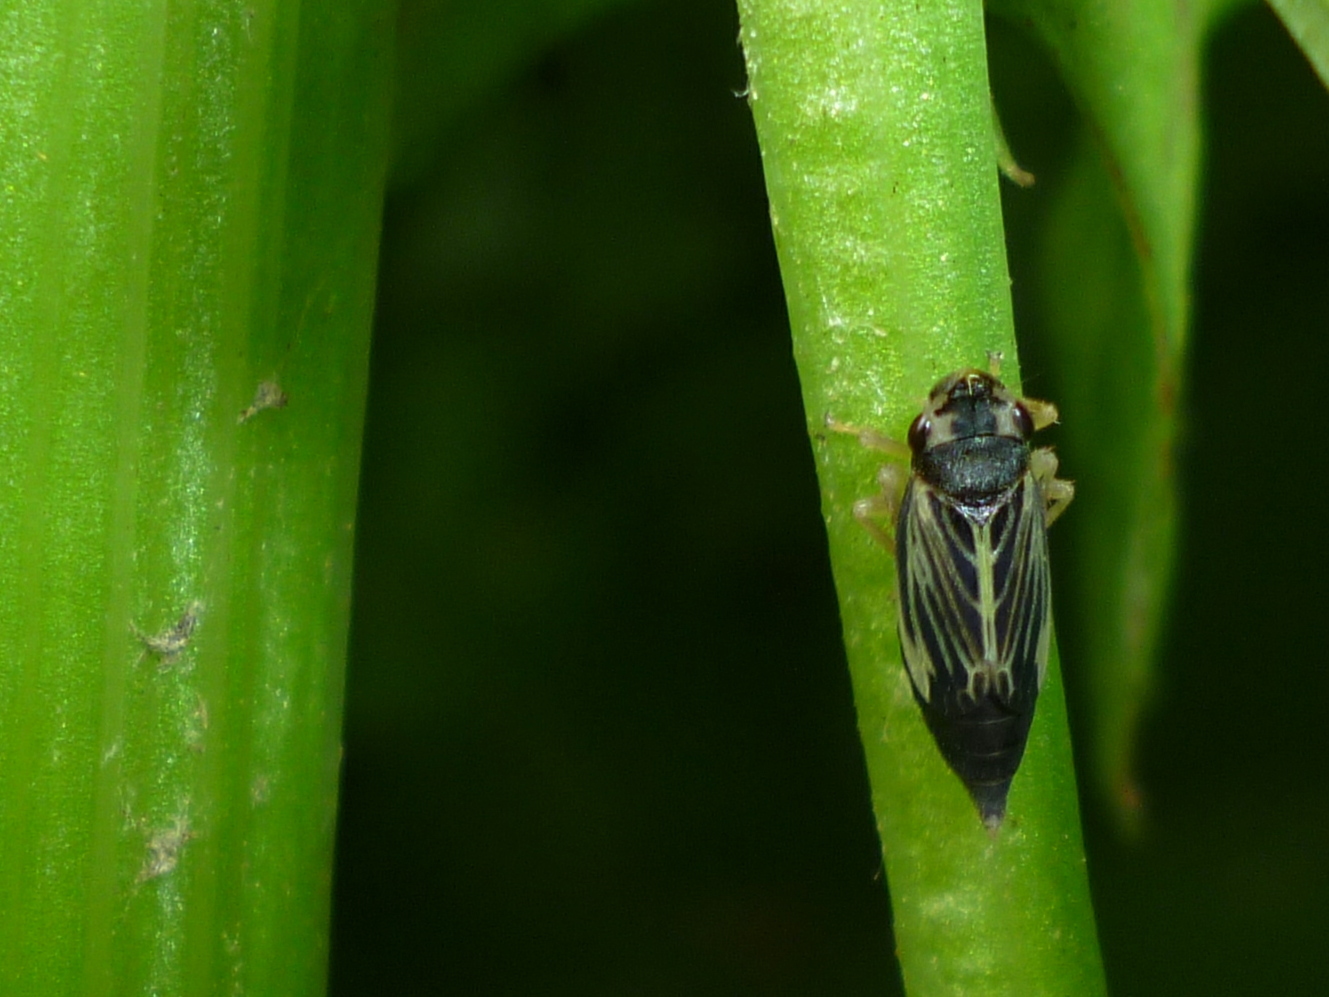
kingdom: Animalia
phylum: Arthropoda
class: Insecta
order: Hemiptera
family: Cicadellidae
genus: Evacanthus
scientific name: Evacanthus nigramericanus
